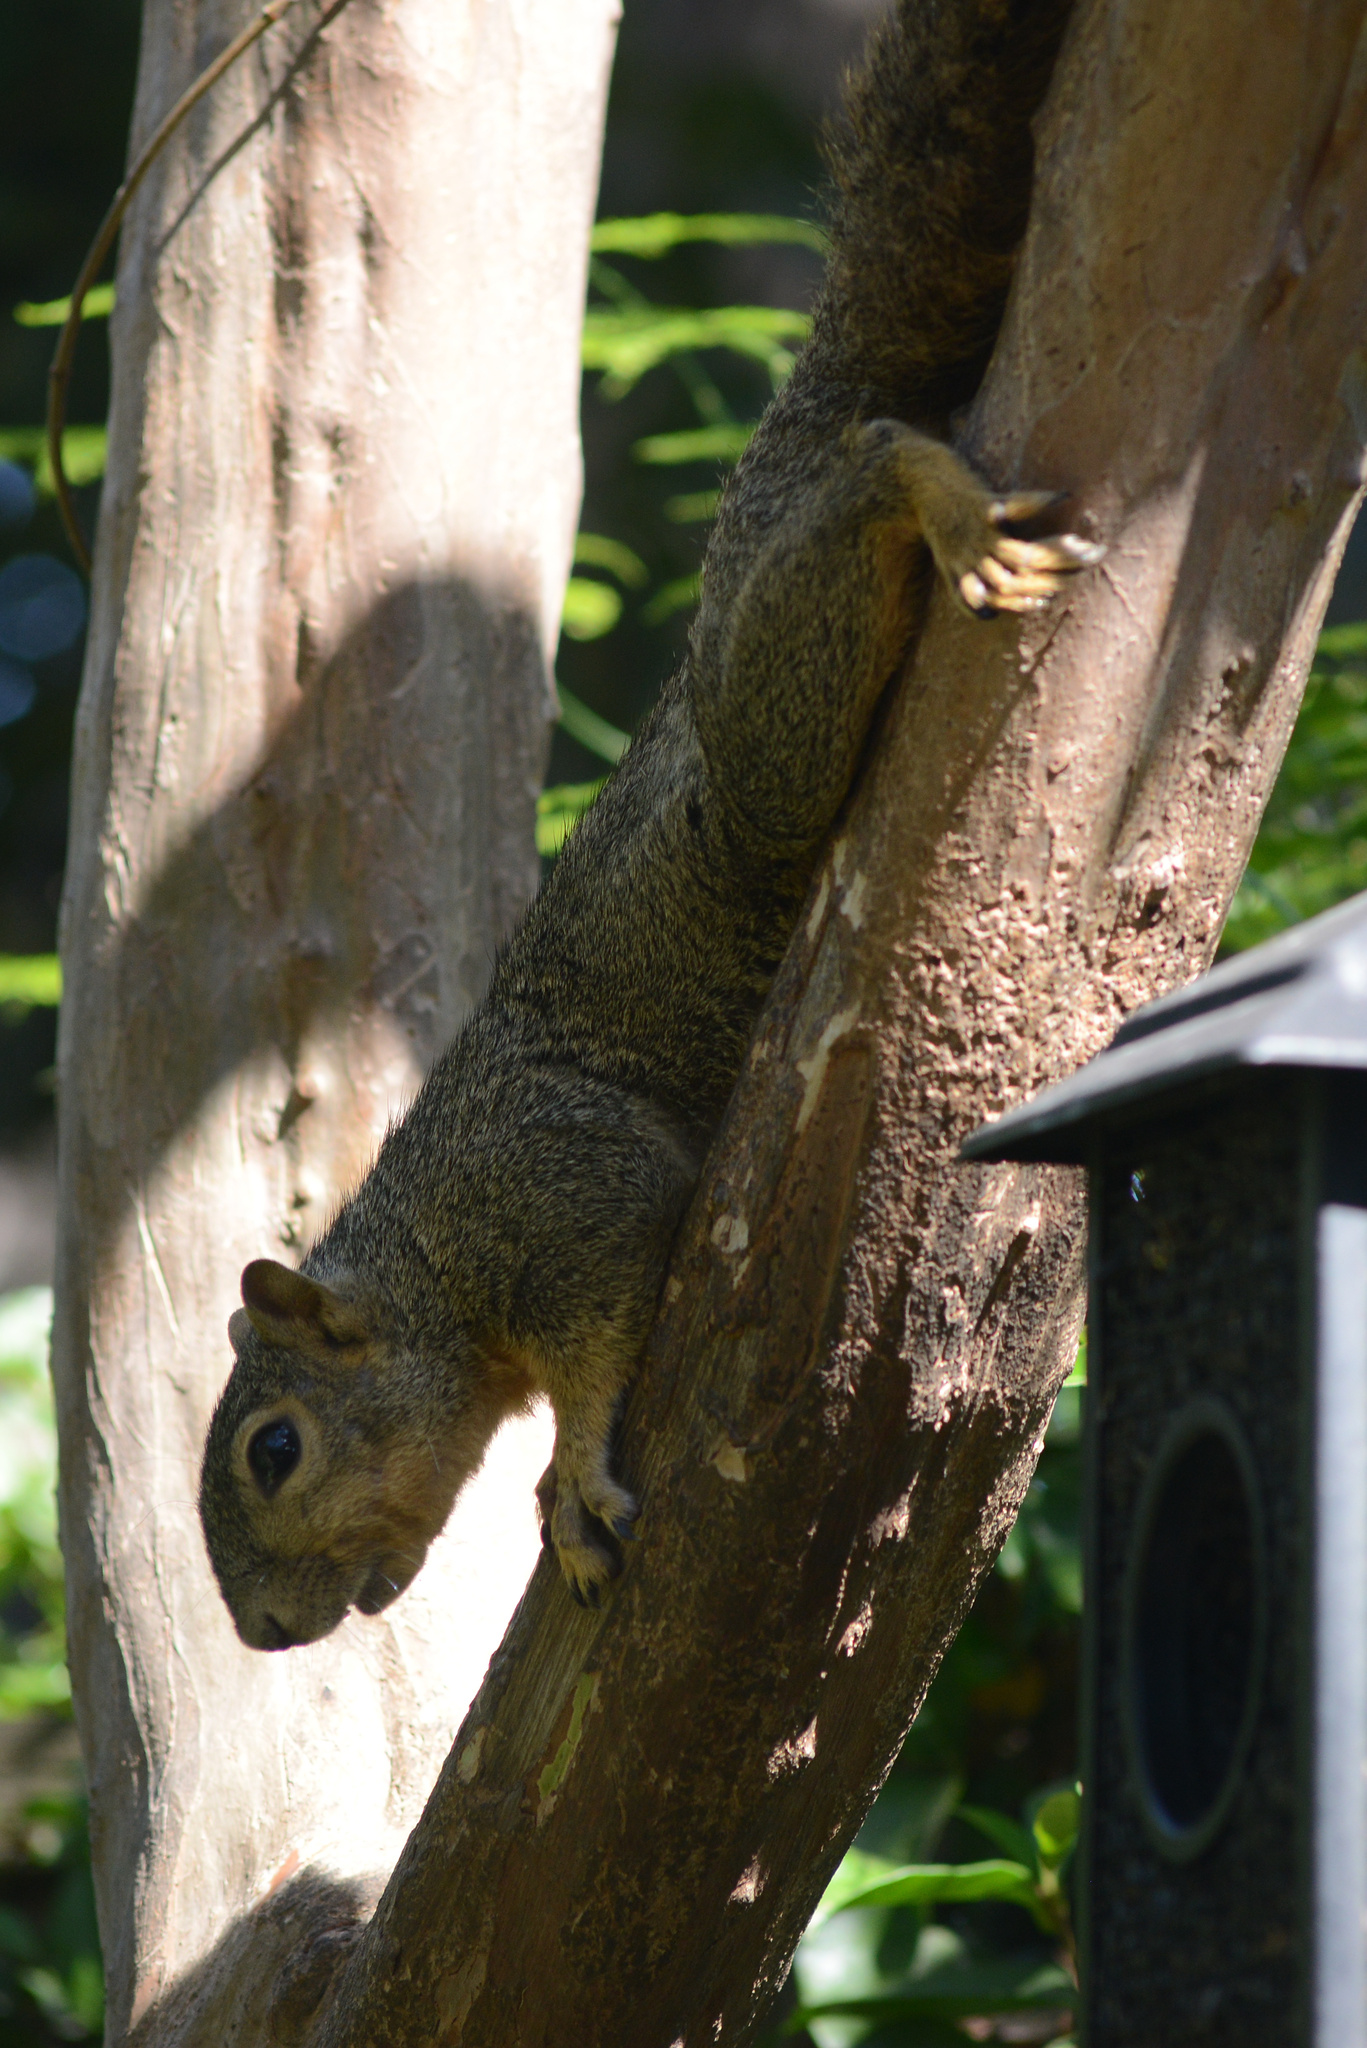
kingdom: Animalia
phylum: Chordata
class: Mammalia
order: Rodentia
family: Sciuridae
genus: Sciurus
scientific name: Sciurus niger
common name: Fox squirrel
